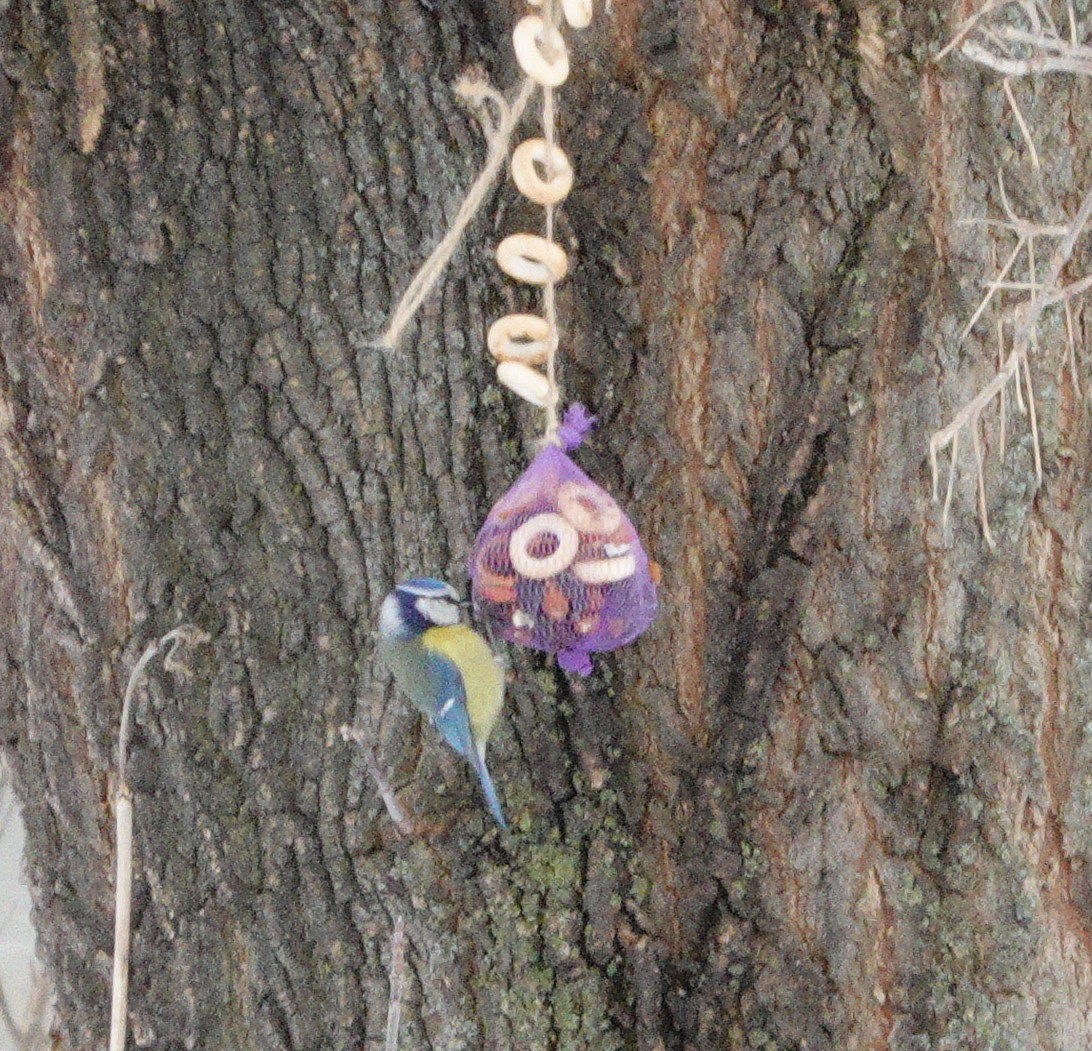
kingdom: Animalia
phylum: Chordata
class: Aves
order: Passeriformes
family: Paridae
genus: Cyanistes
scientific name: Cyanistes caeruleus
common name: Eurasian blue tit
